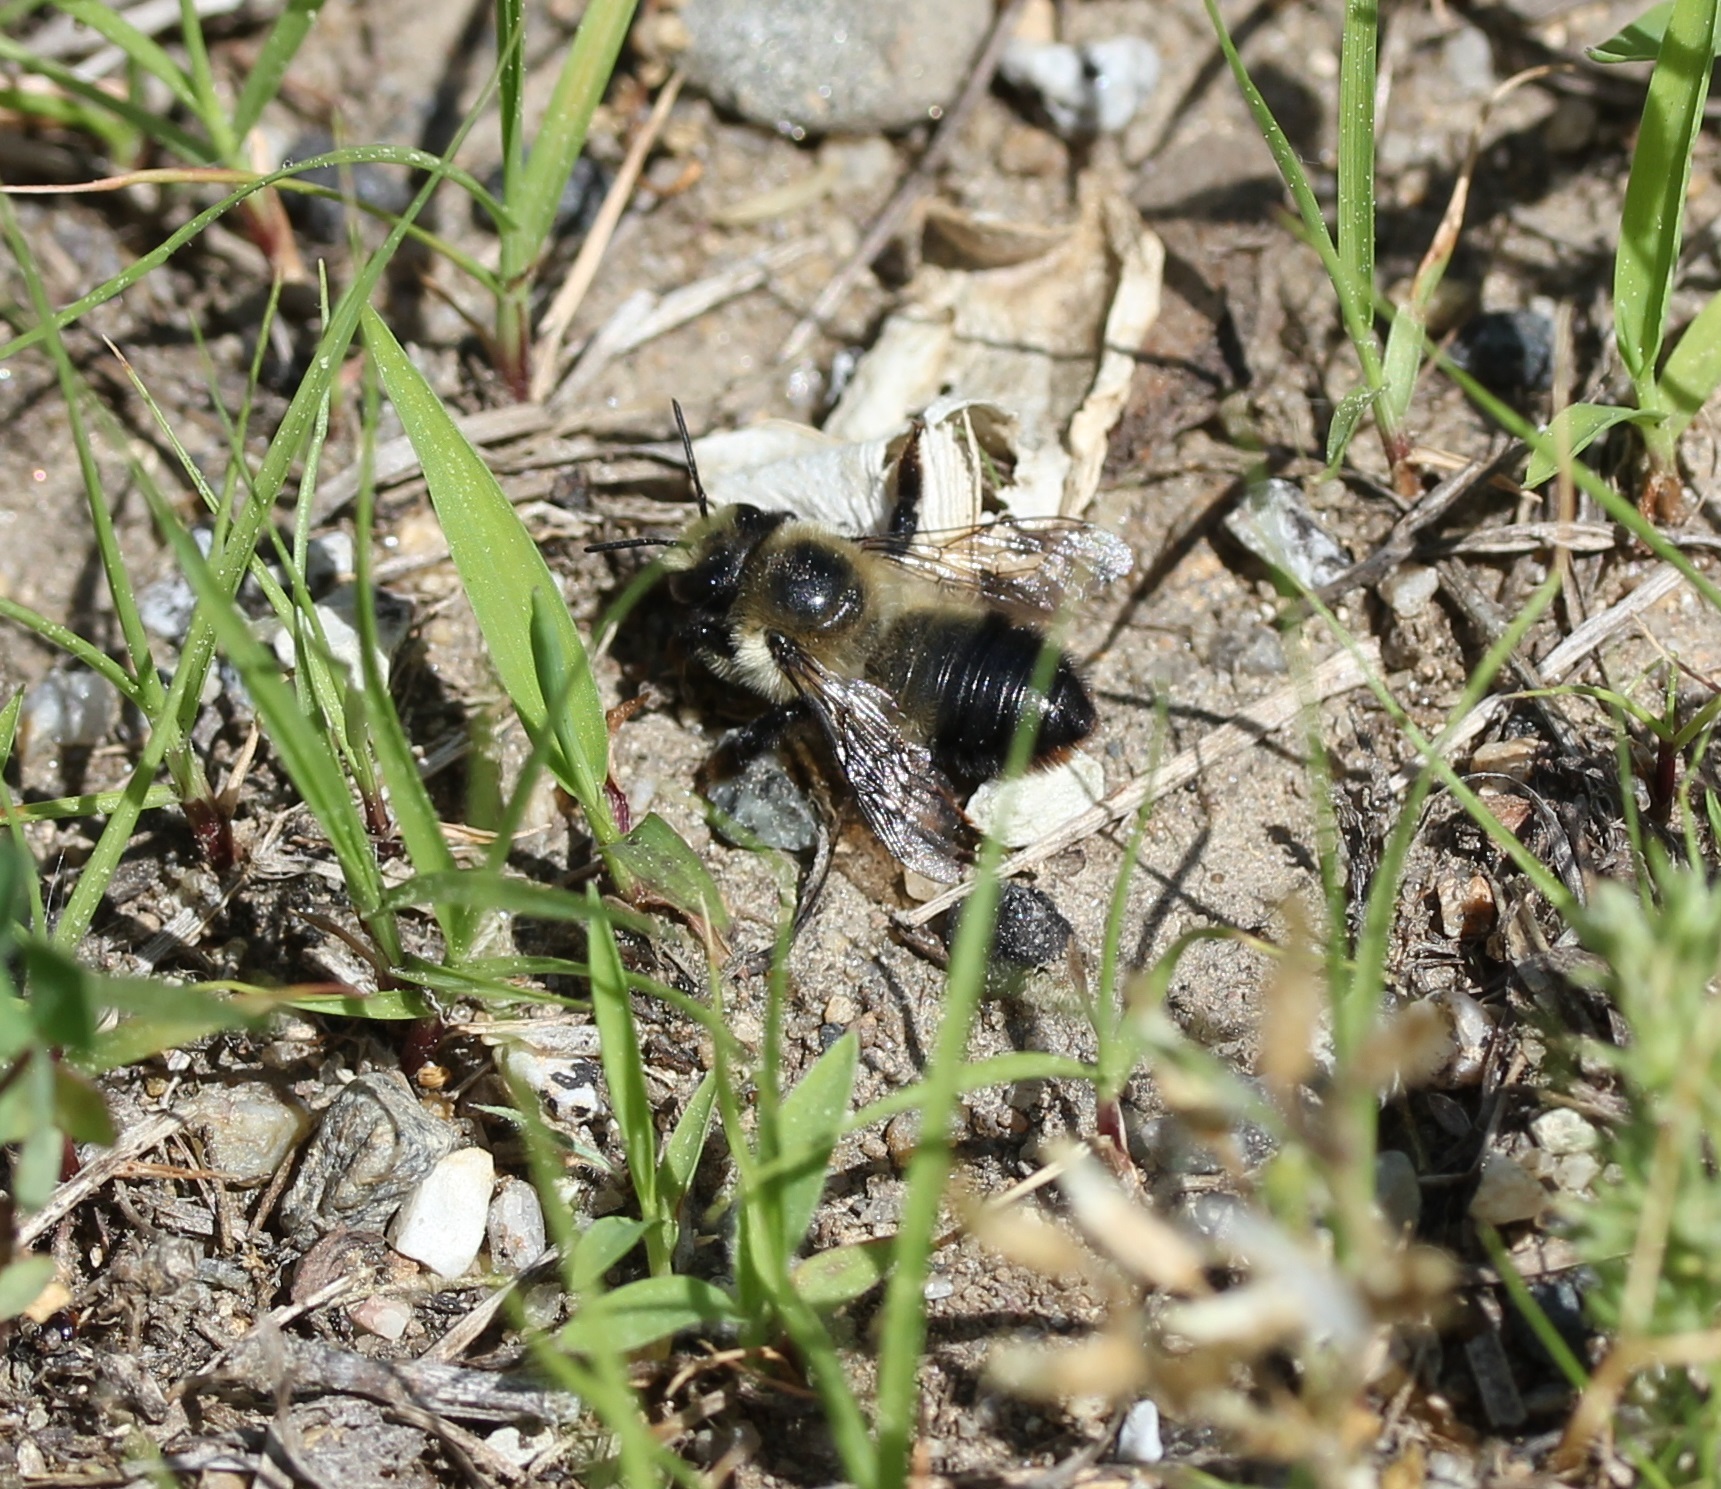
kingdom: Animalia
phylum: Arthropoda
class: Insecta
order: Hymenoptera
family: Megachilidae
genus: Megachile
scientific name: Megachile melanophaea
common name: Black-and-gray leafcutter bee
